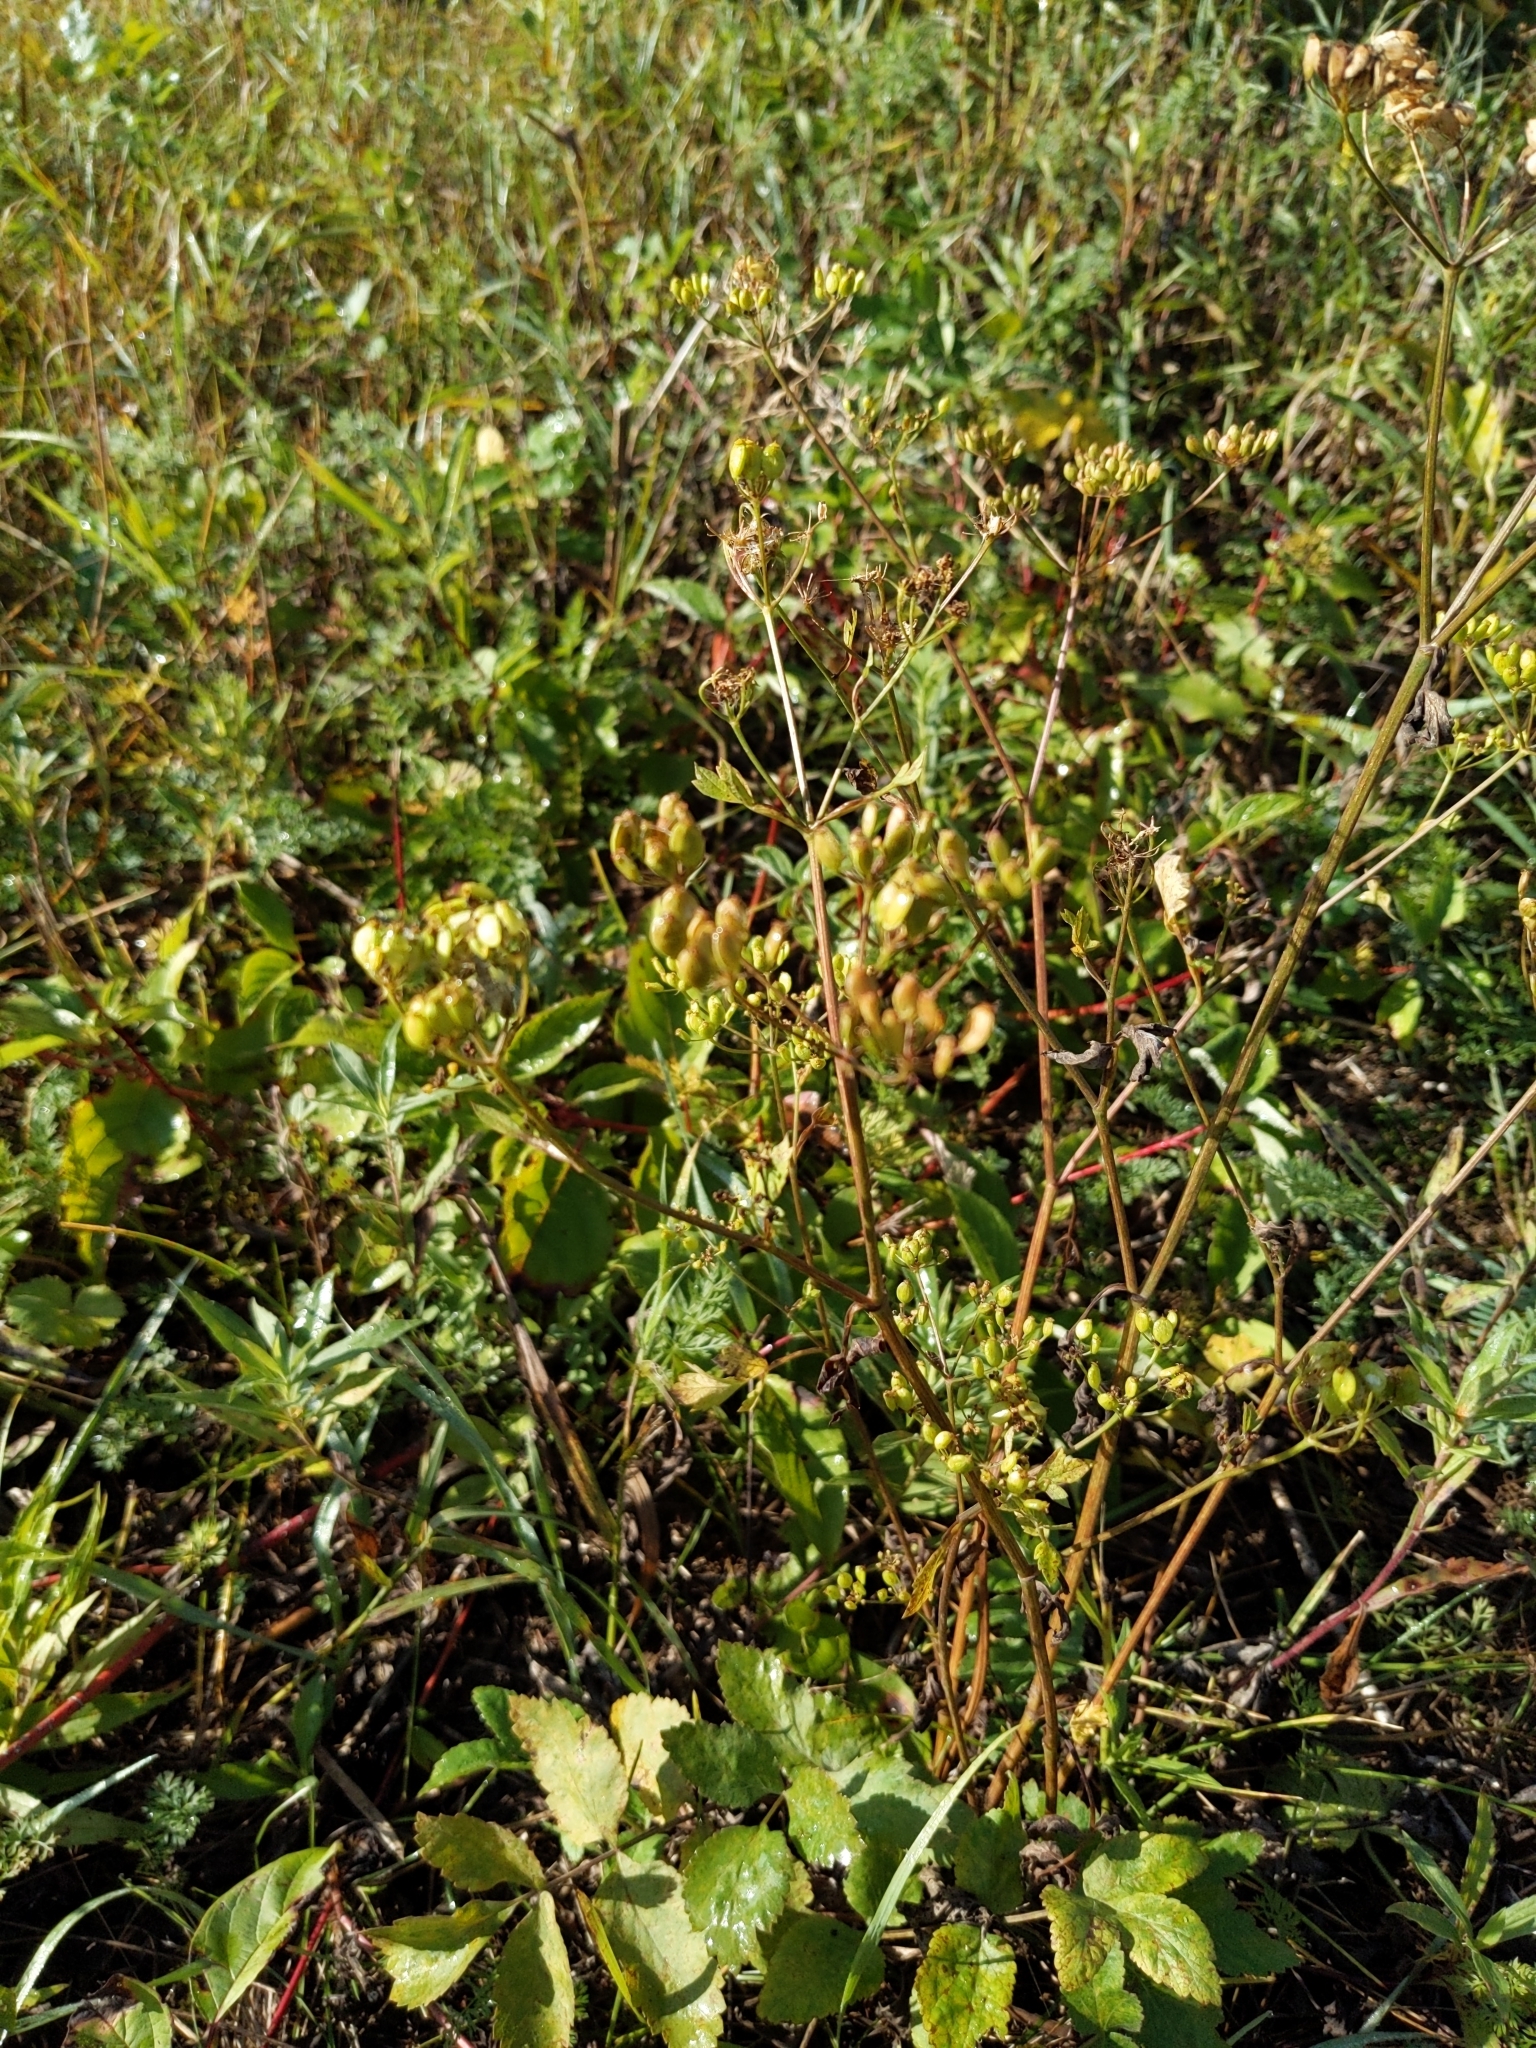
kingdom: Plantae
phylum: Tracheophyta
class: Magnoliopsida
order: Apiales
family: Apiaceae
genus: Pastinaca
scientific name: Pastinaca sativa
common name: Wild parsnip
